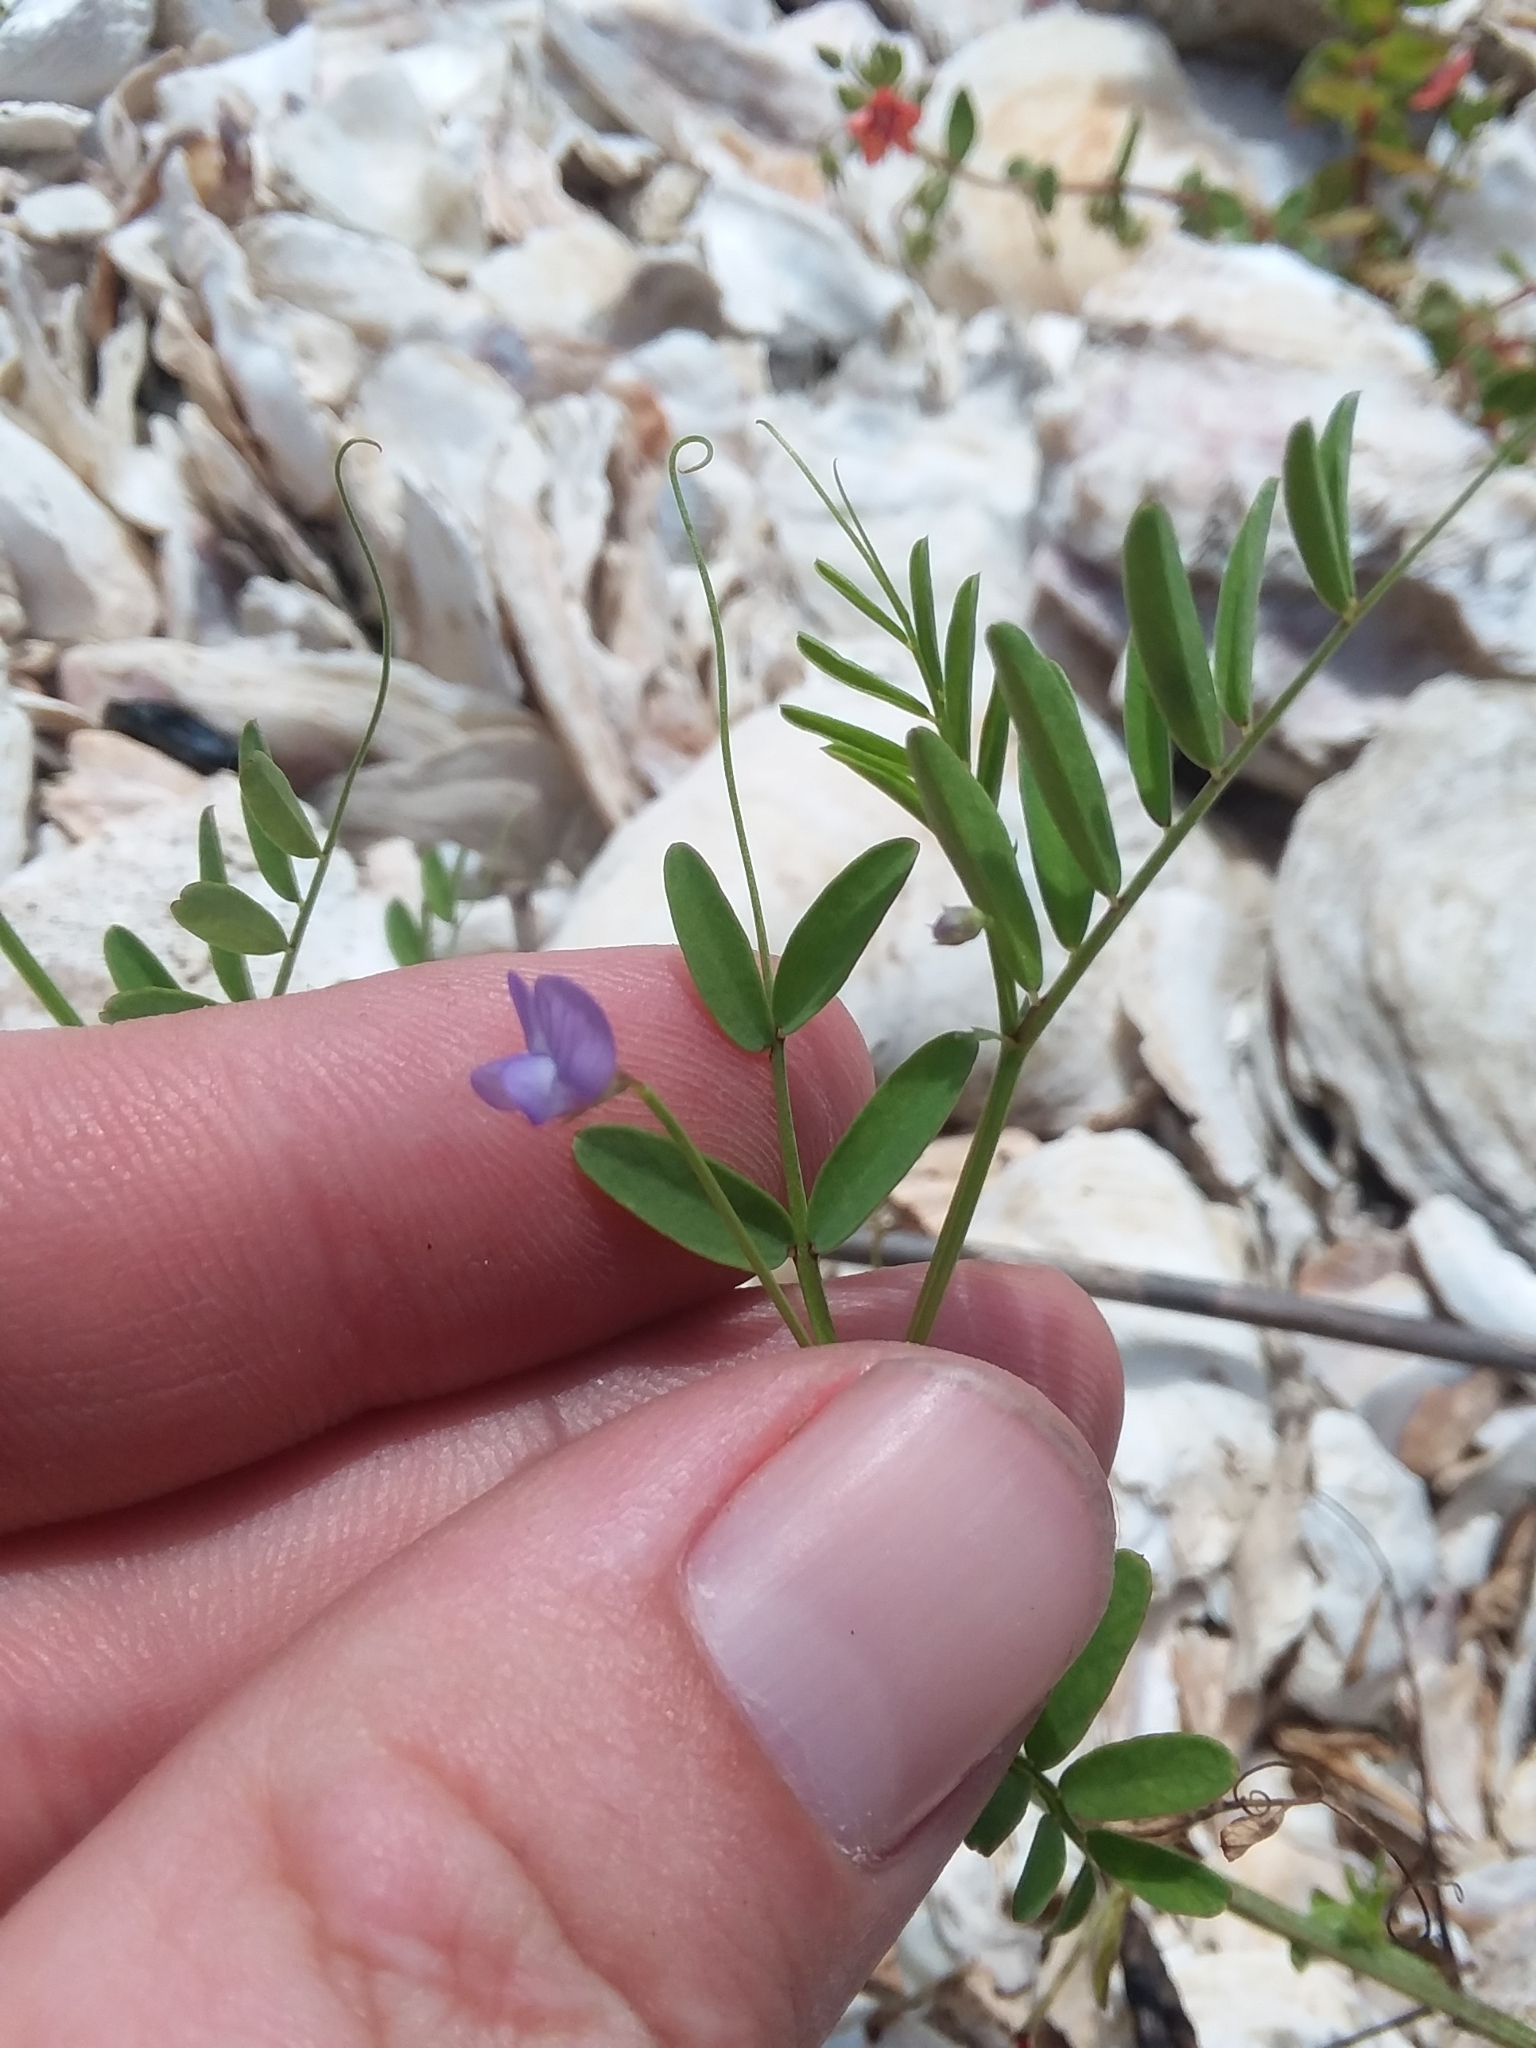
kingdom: Plantae
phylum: Tracheophyta
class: Magnoliopsida
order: Fabales
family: Fabaceae
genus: Vicia
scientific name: Vicia ludoviciana
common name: Louisiana vetch
